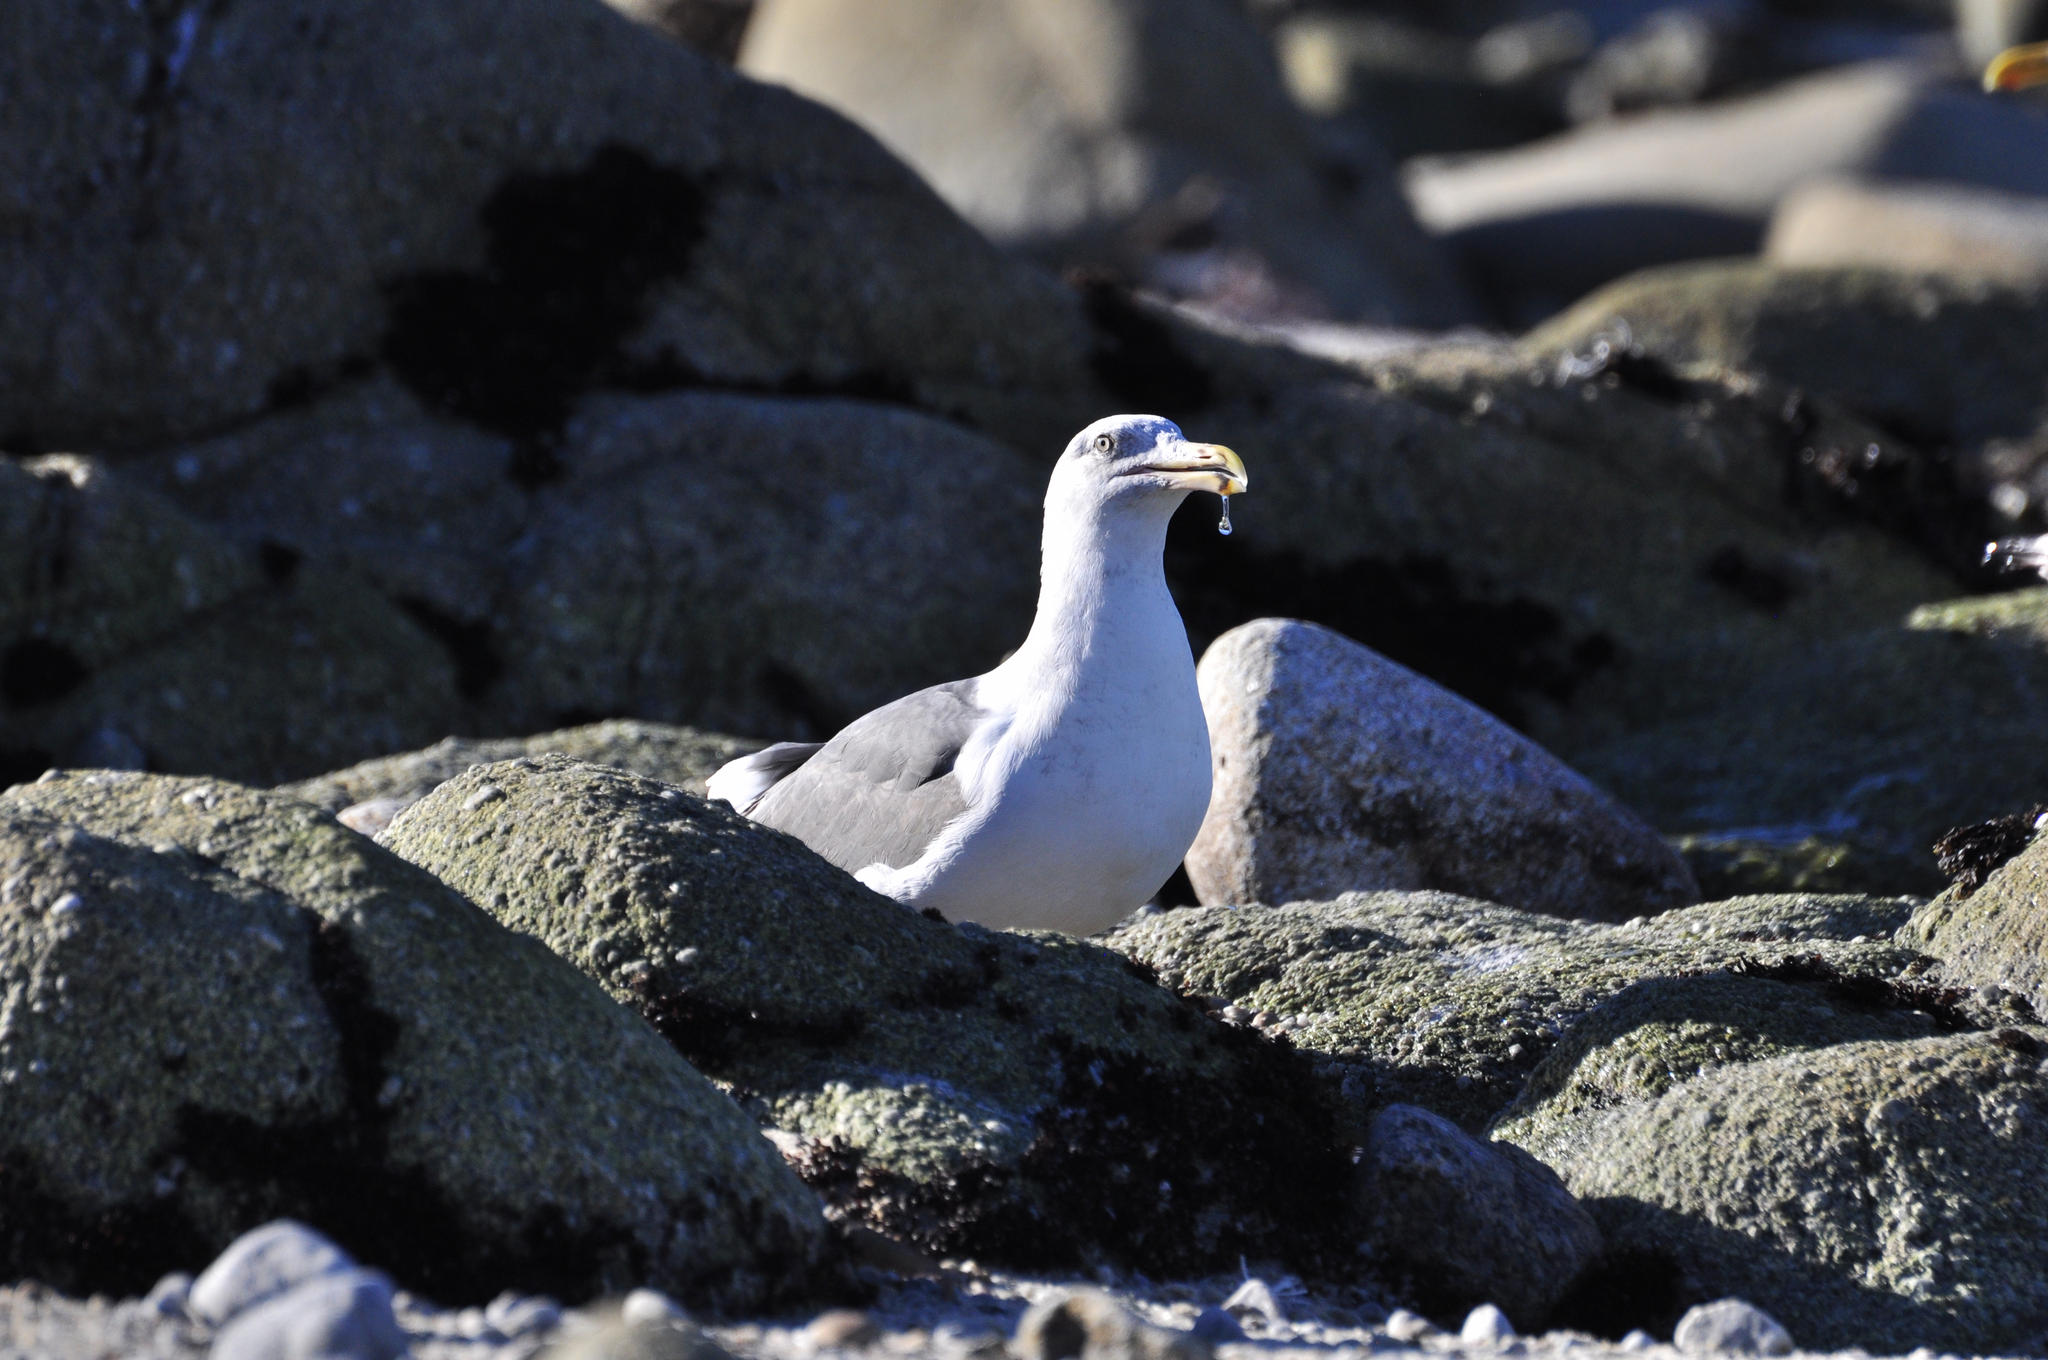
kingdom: Animalia
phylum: Chordata
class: Aves
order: Charadriiformes
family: Laridae
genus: Larus
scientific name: Larus occidentalis
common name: Western gull
